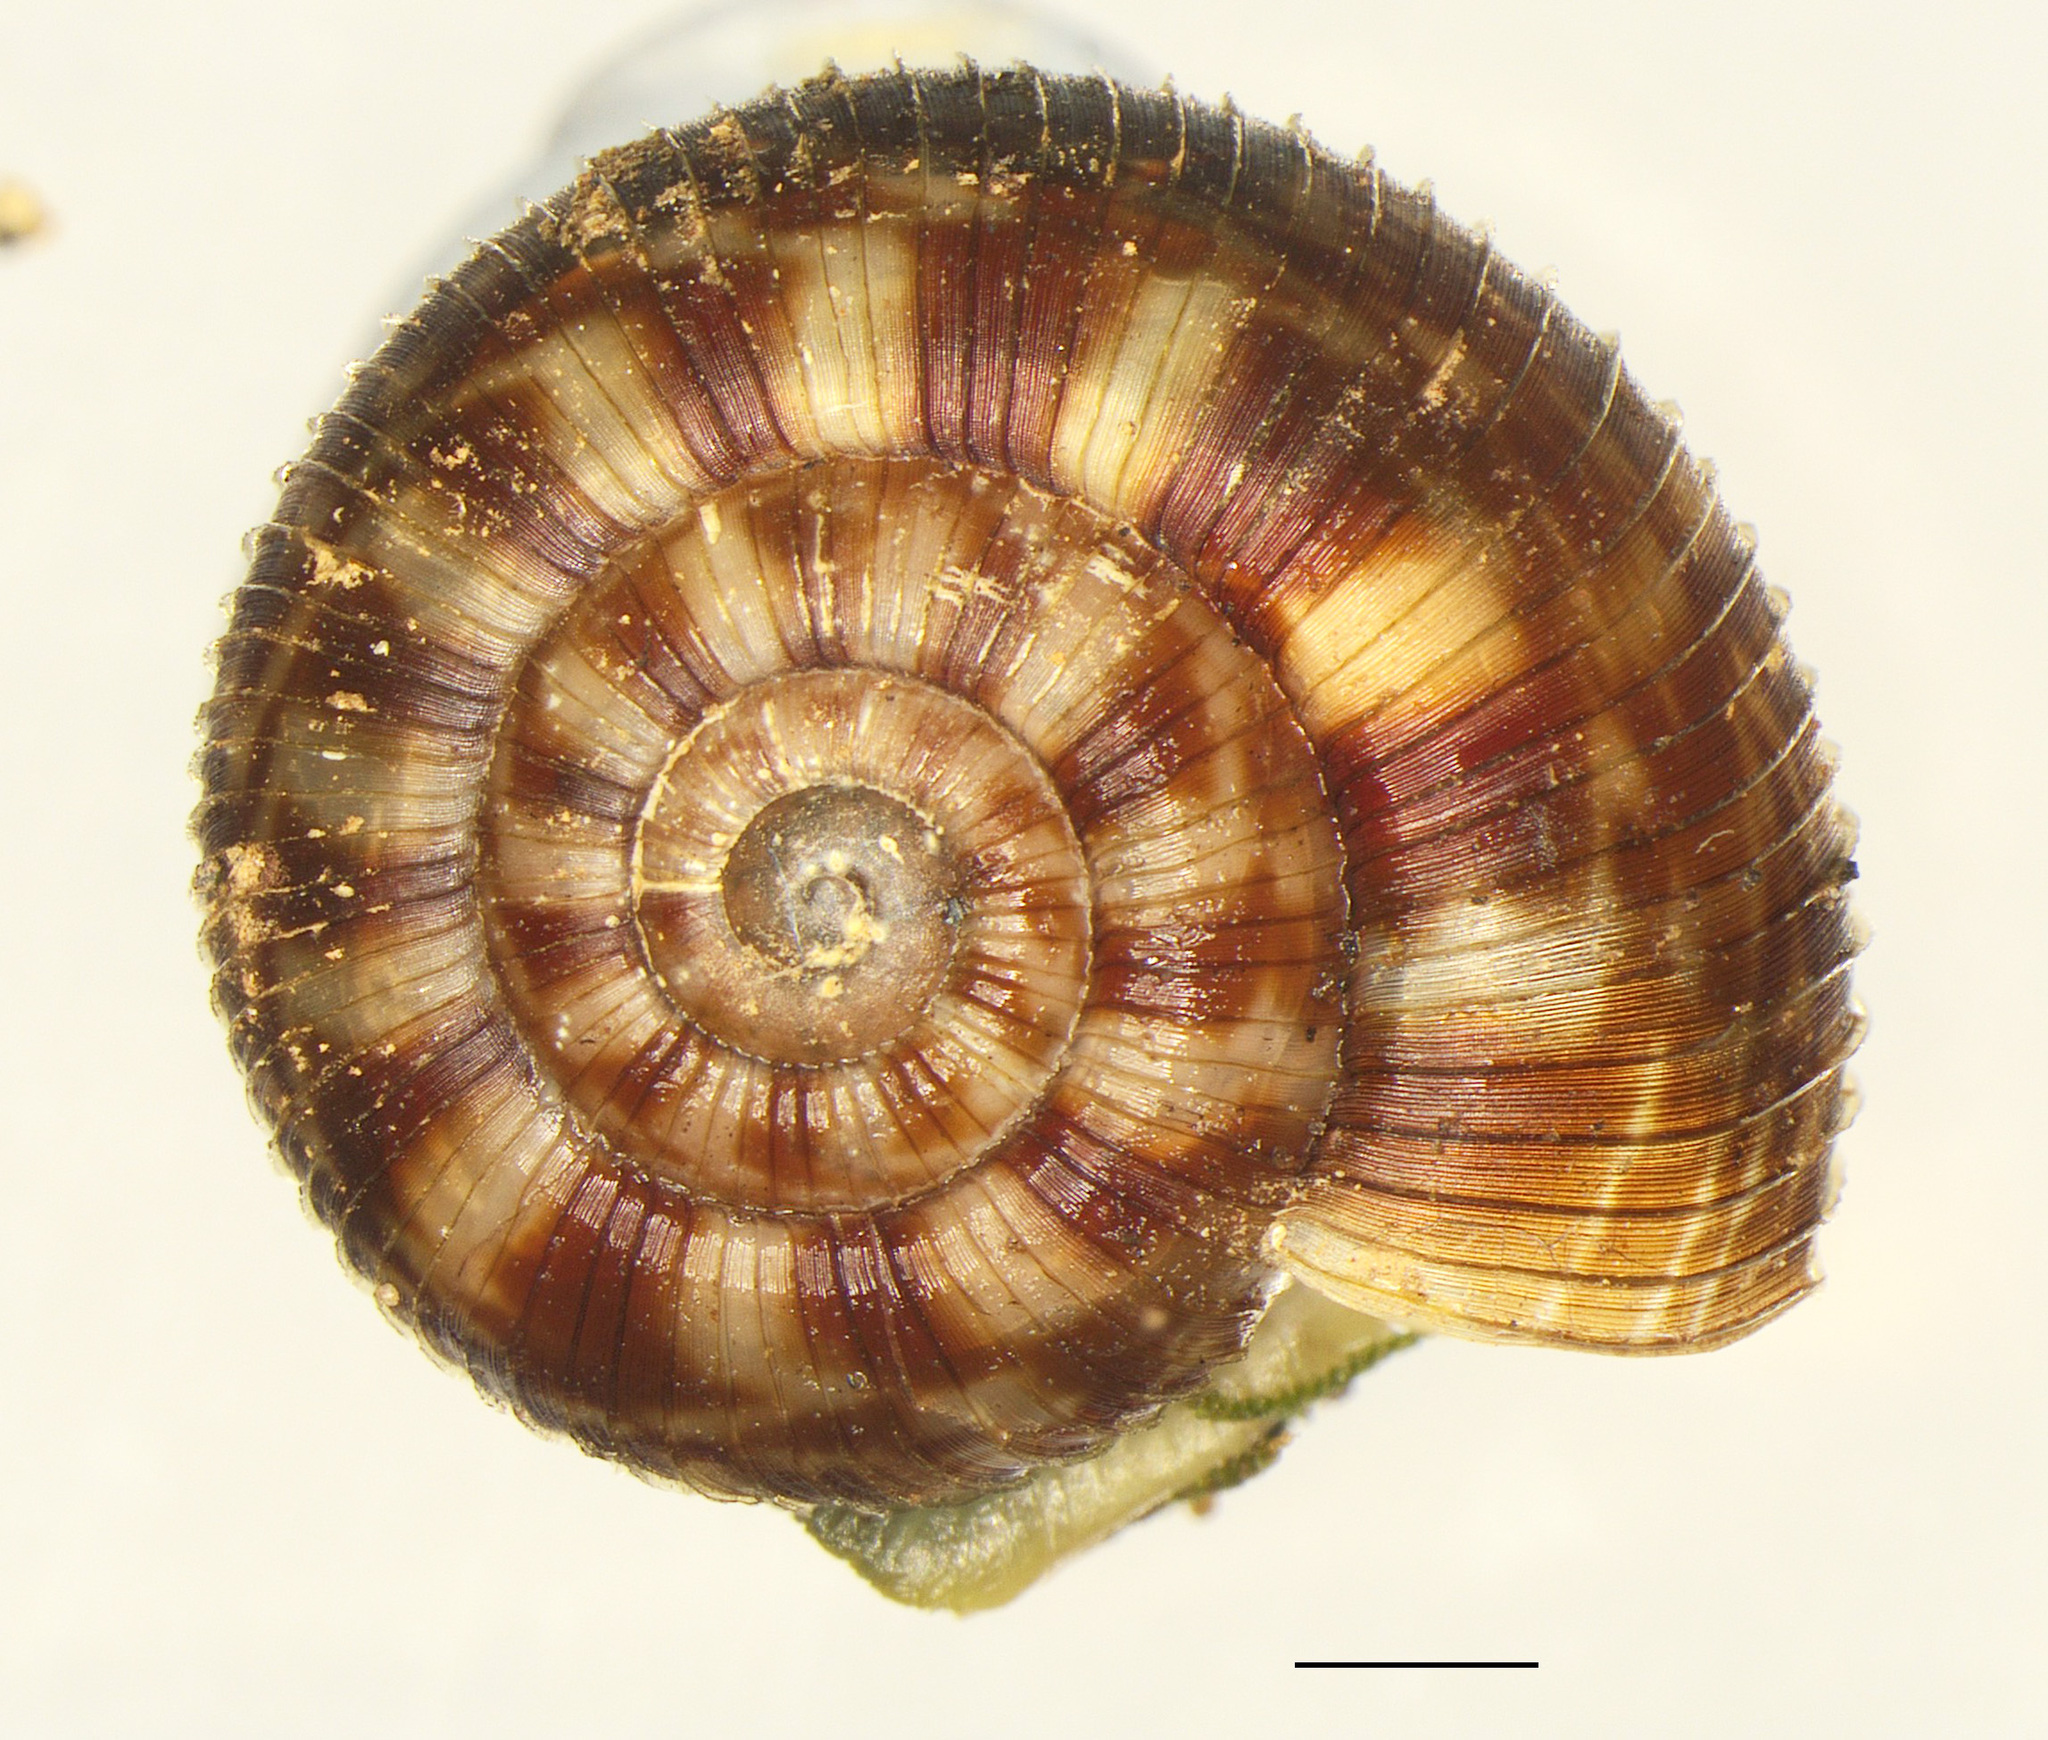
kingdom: Animalia
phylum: Mollusca
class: Gastropoda
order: Stylommatophora
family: Charopidae
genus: Allodiscus
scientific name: Allodiscus nematophorus
